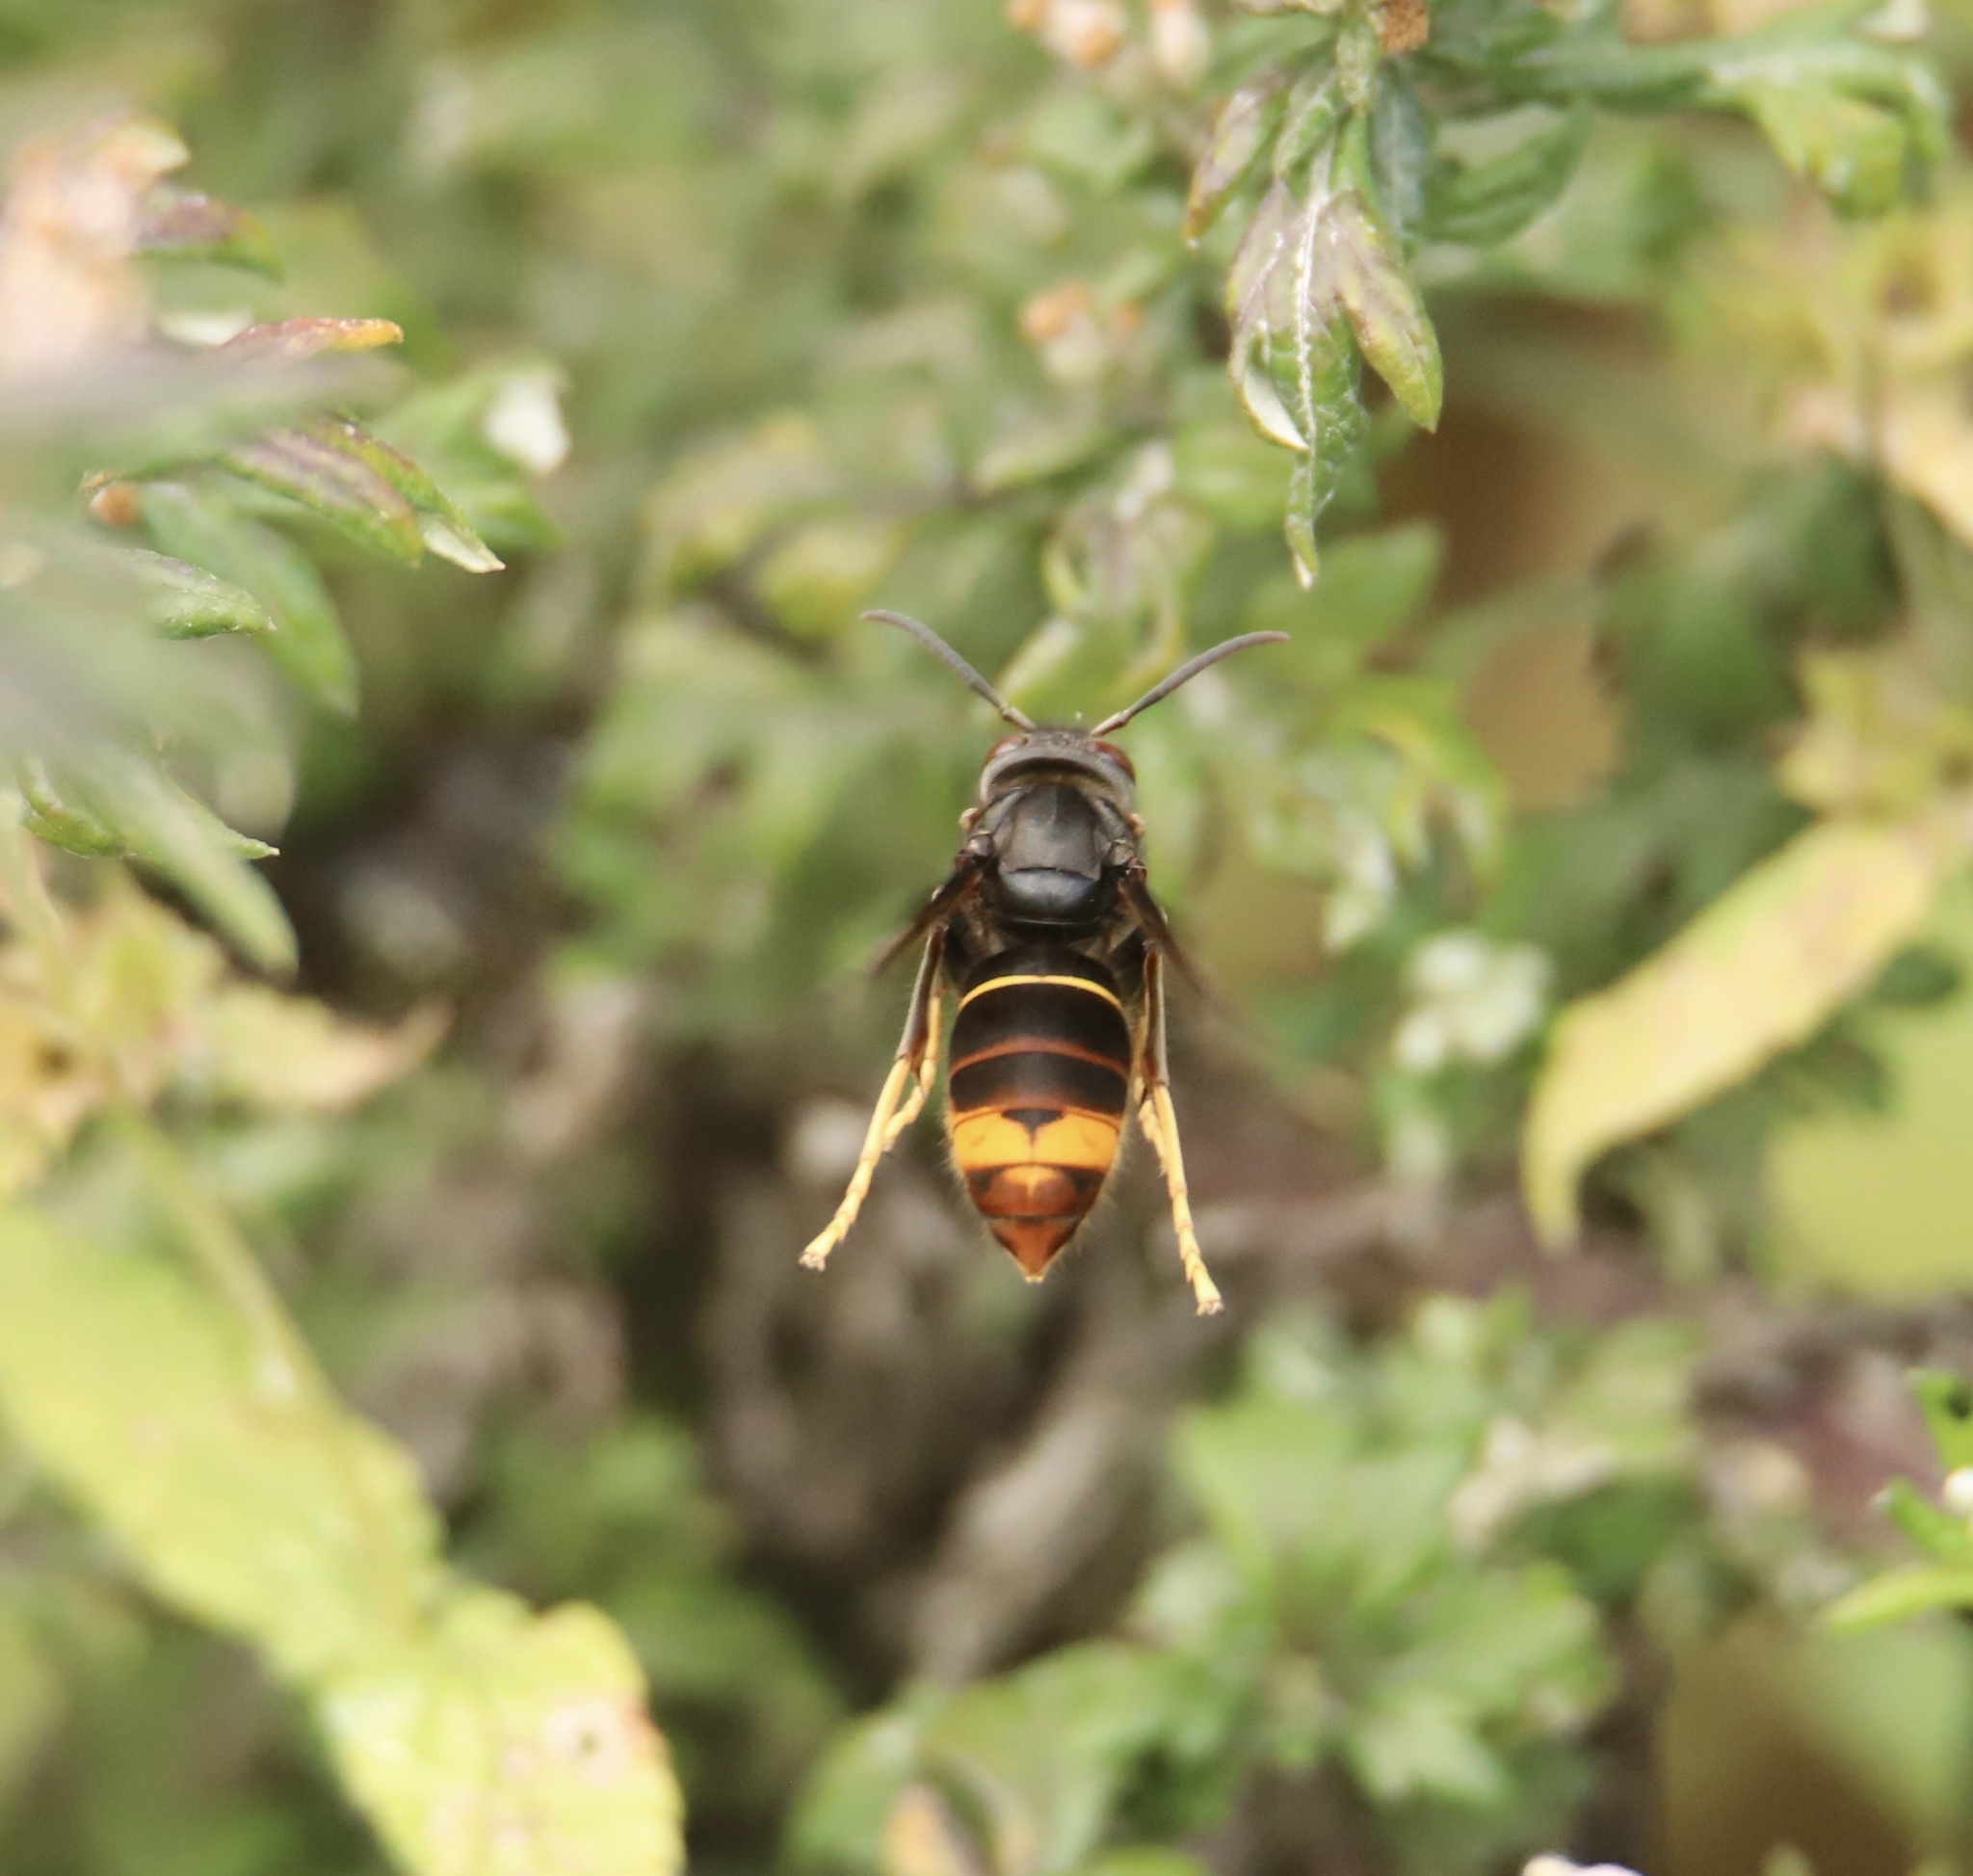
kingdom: Animalia
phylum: Arthropoda
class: Insecta
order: Hymenoptera
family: Vespidae
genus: Vespa
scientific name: Vespa velutina
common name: Asian hornet
